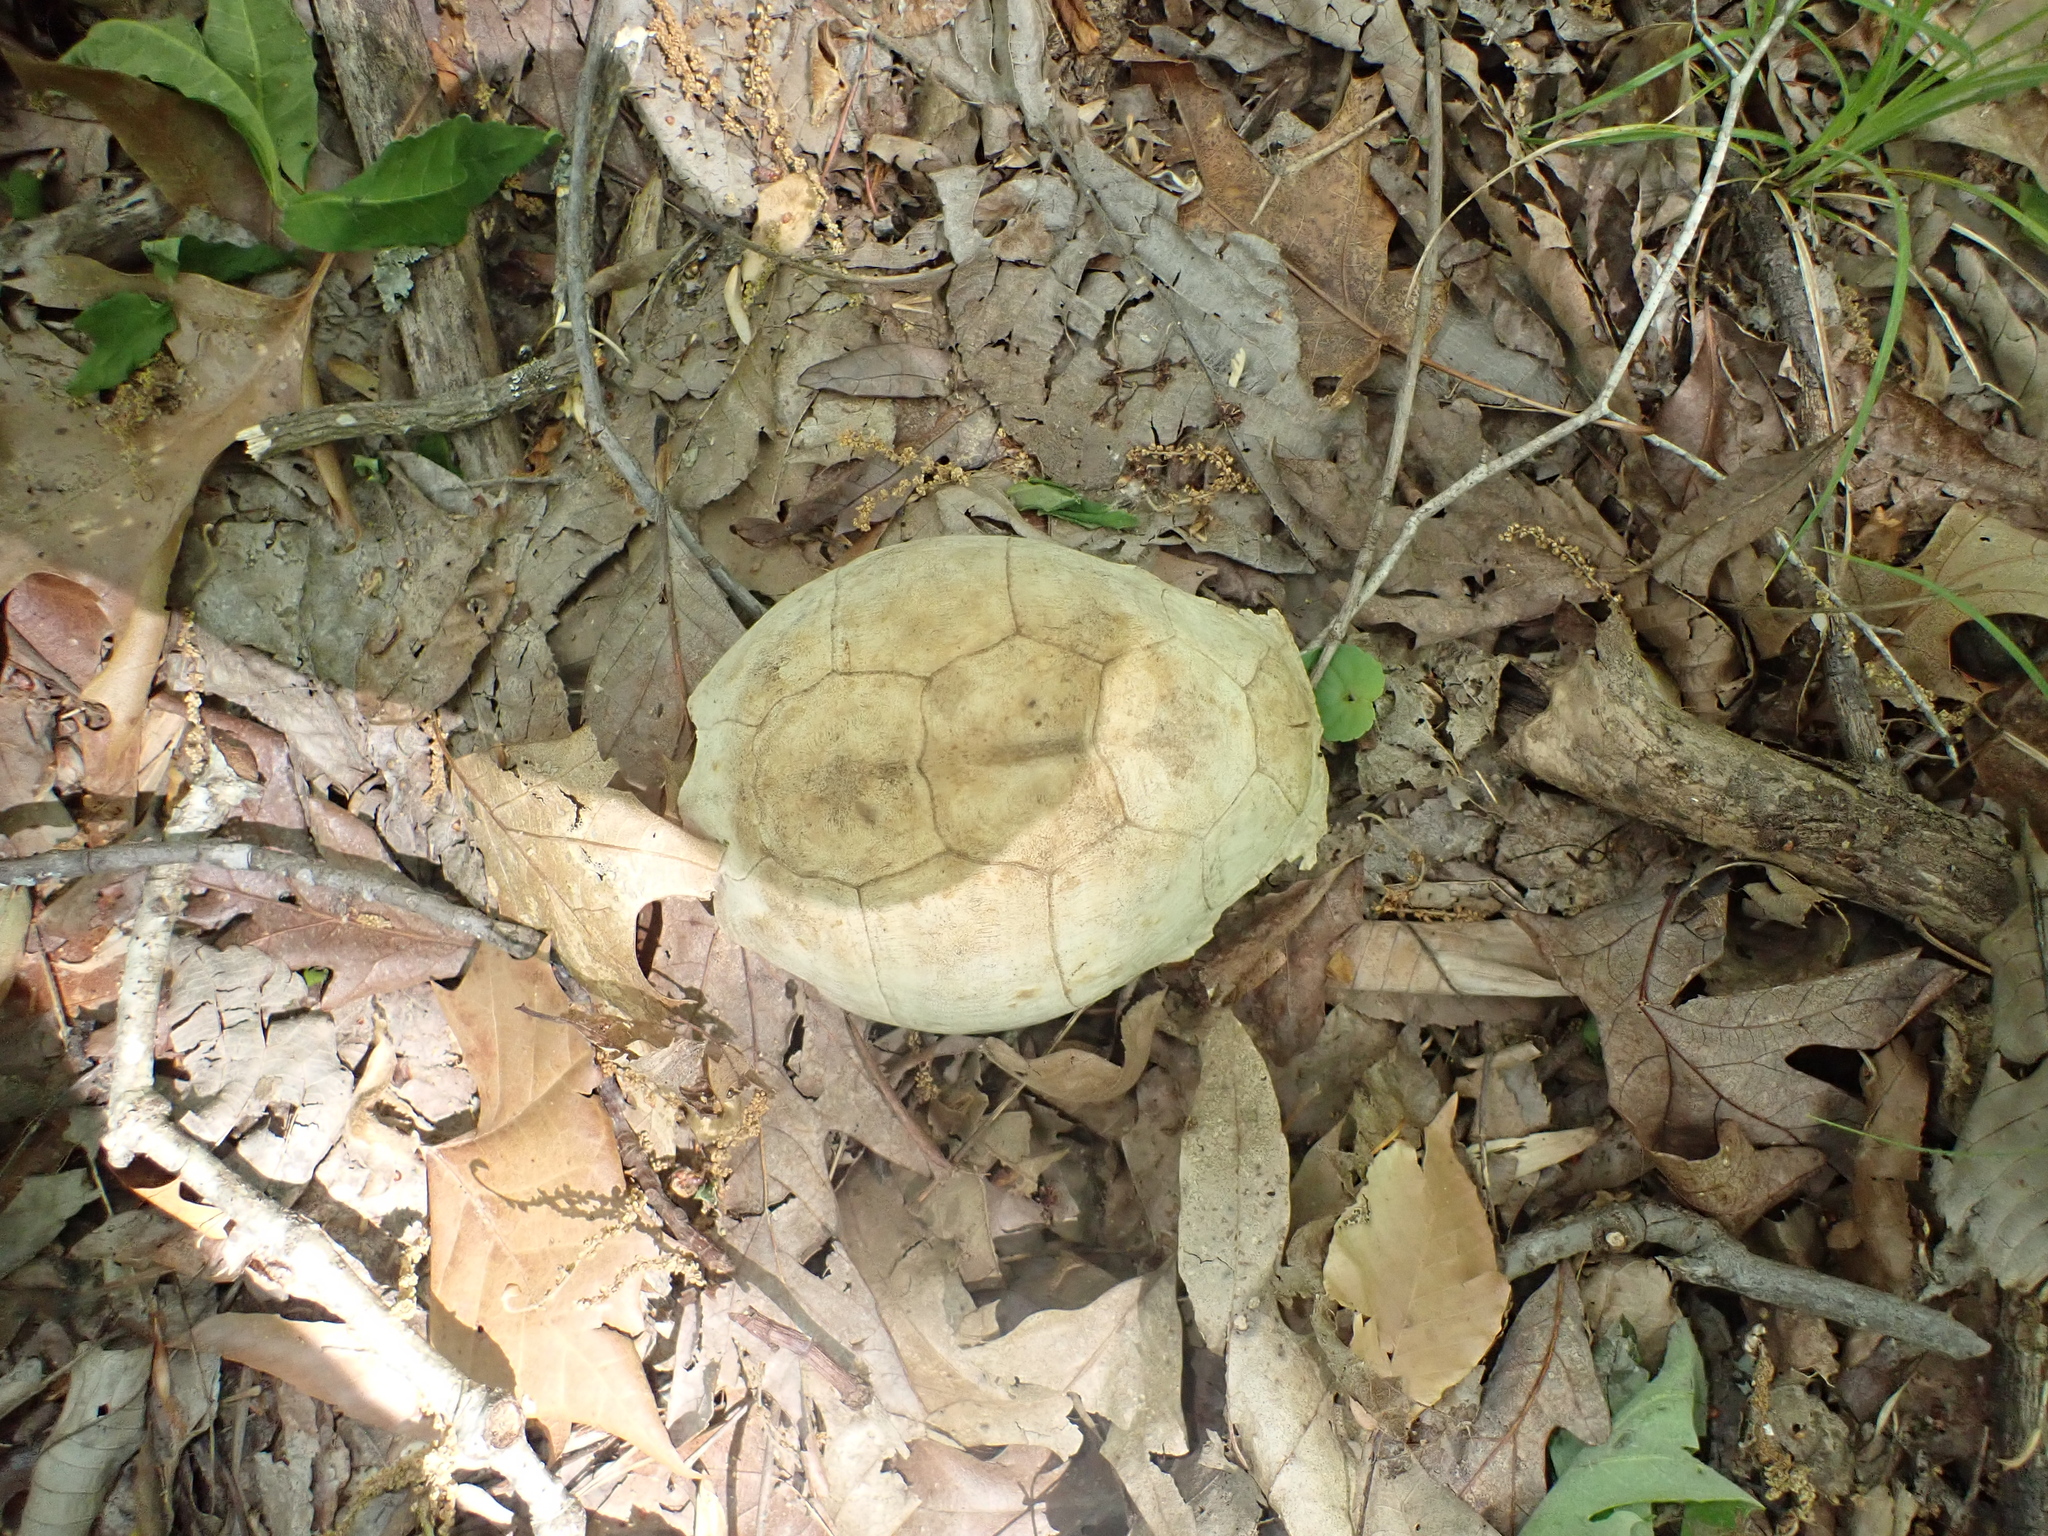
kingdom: Animalia
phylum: Chordata
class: Testudines
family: Emydidae
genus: Terrapene
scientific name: Terrapene carolina
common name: Common box turtle
